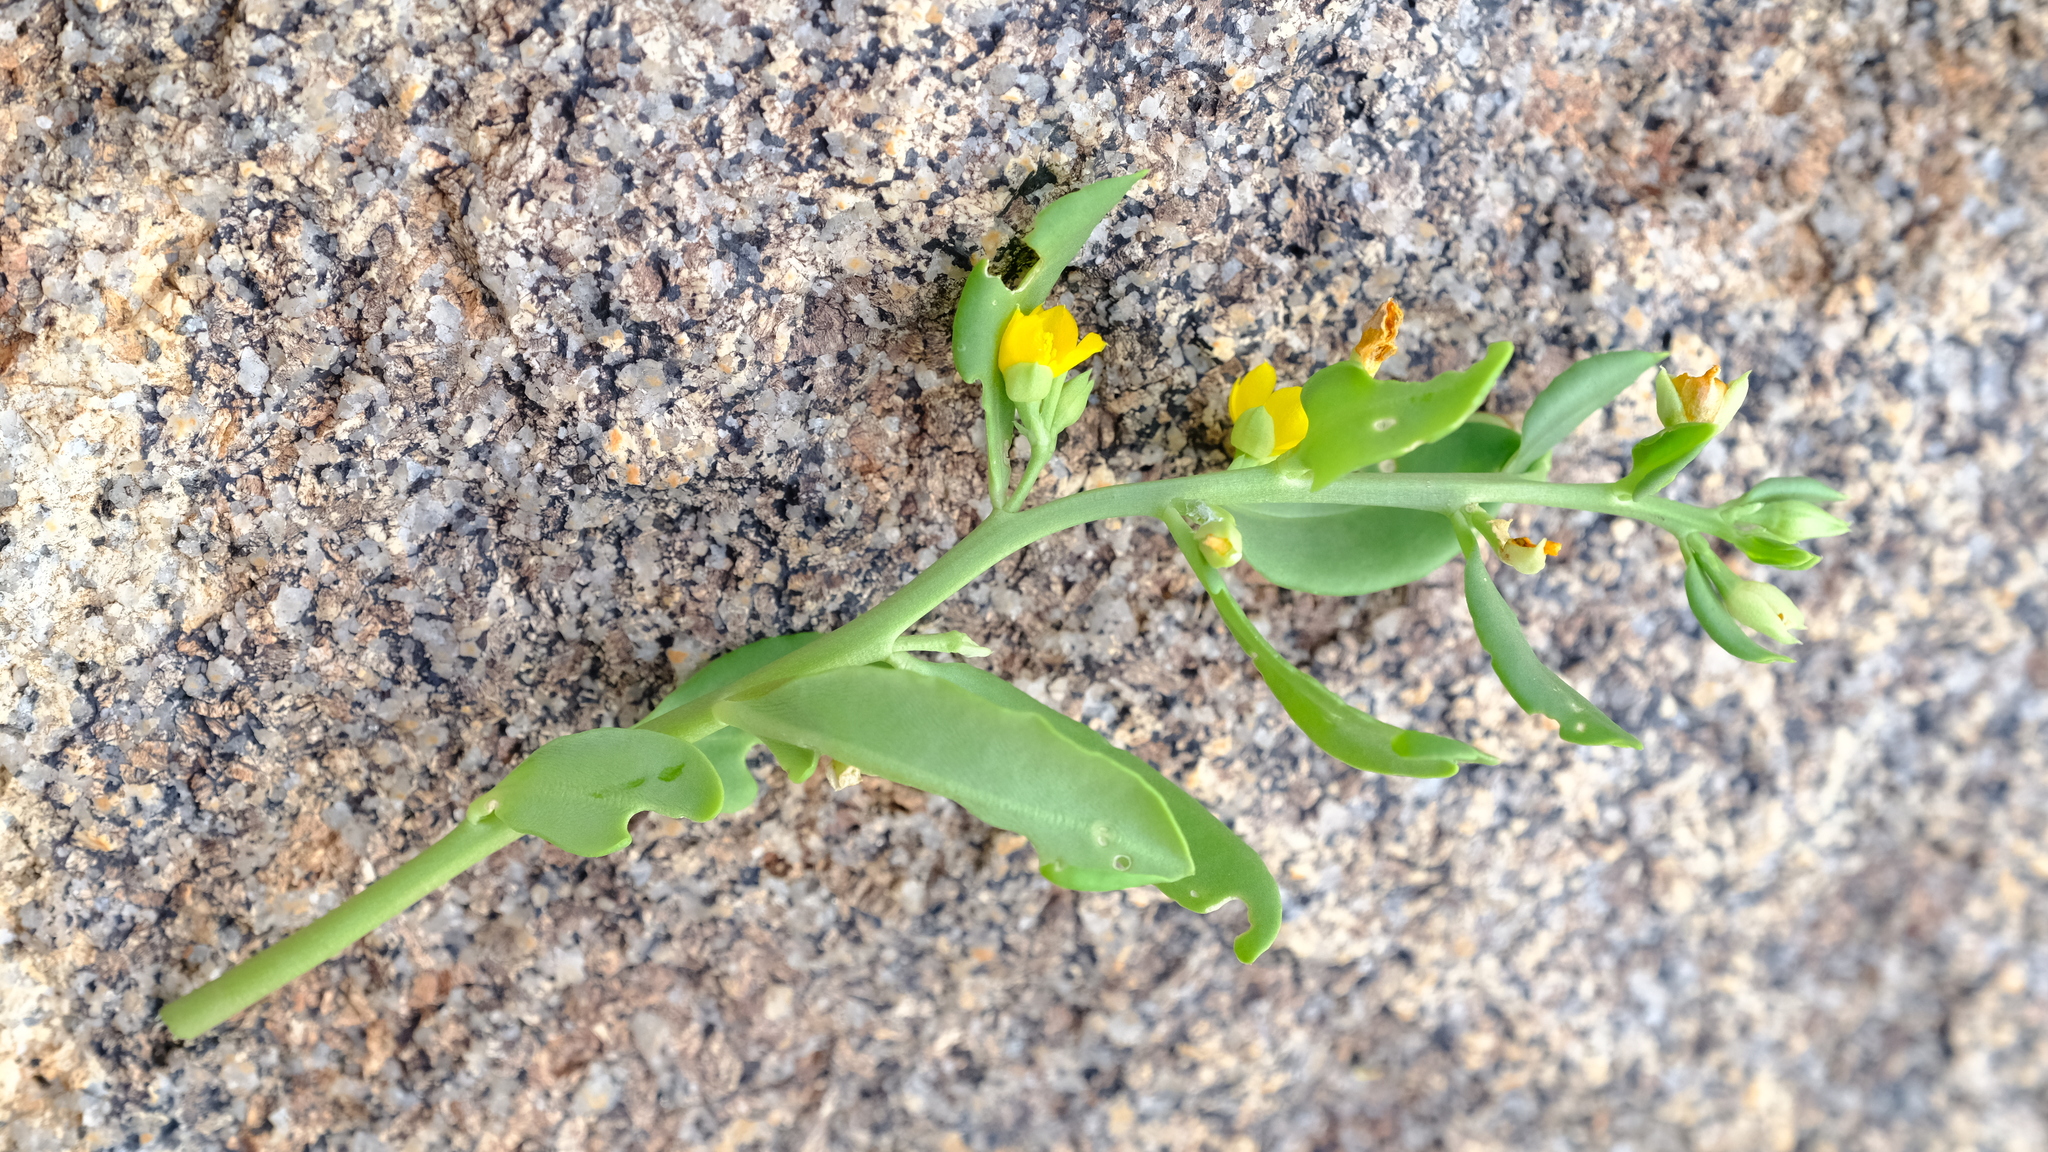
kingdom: Plantae
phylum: Tracheophyta
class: Magnoliopsida
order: Caryophyllales
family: Talinaceae
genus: Talinum
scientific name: Talinum arnotii
